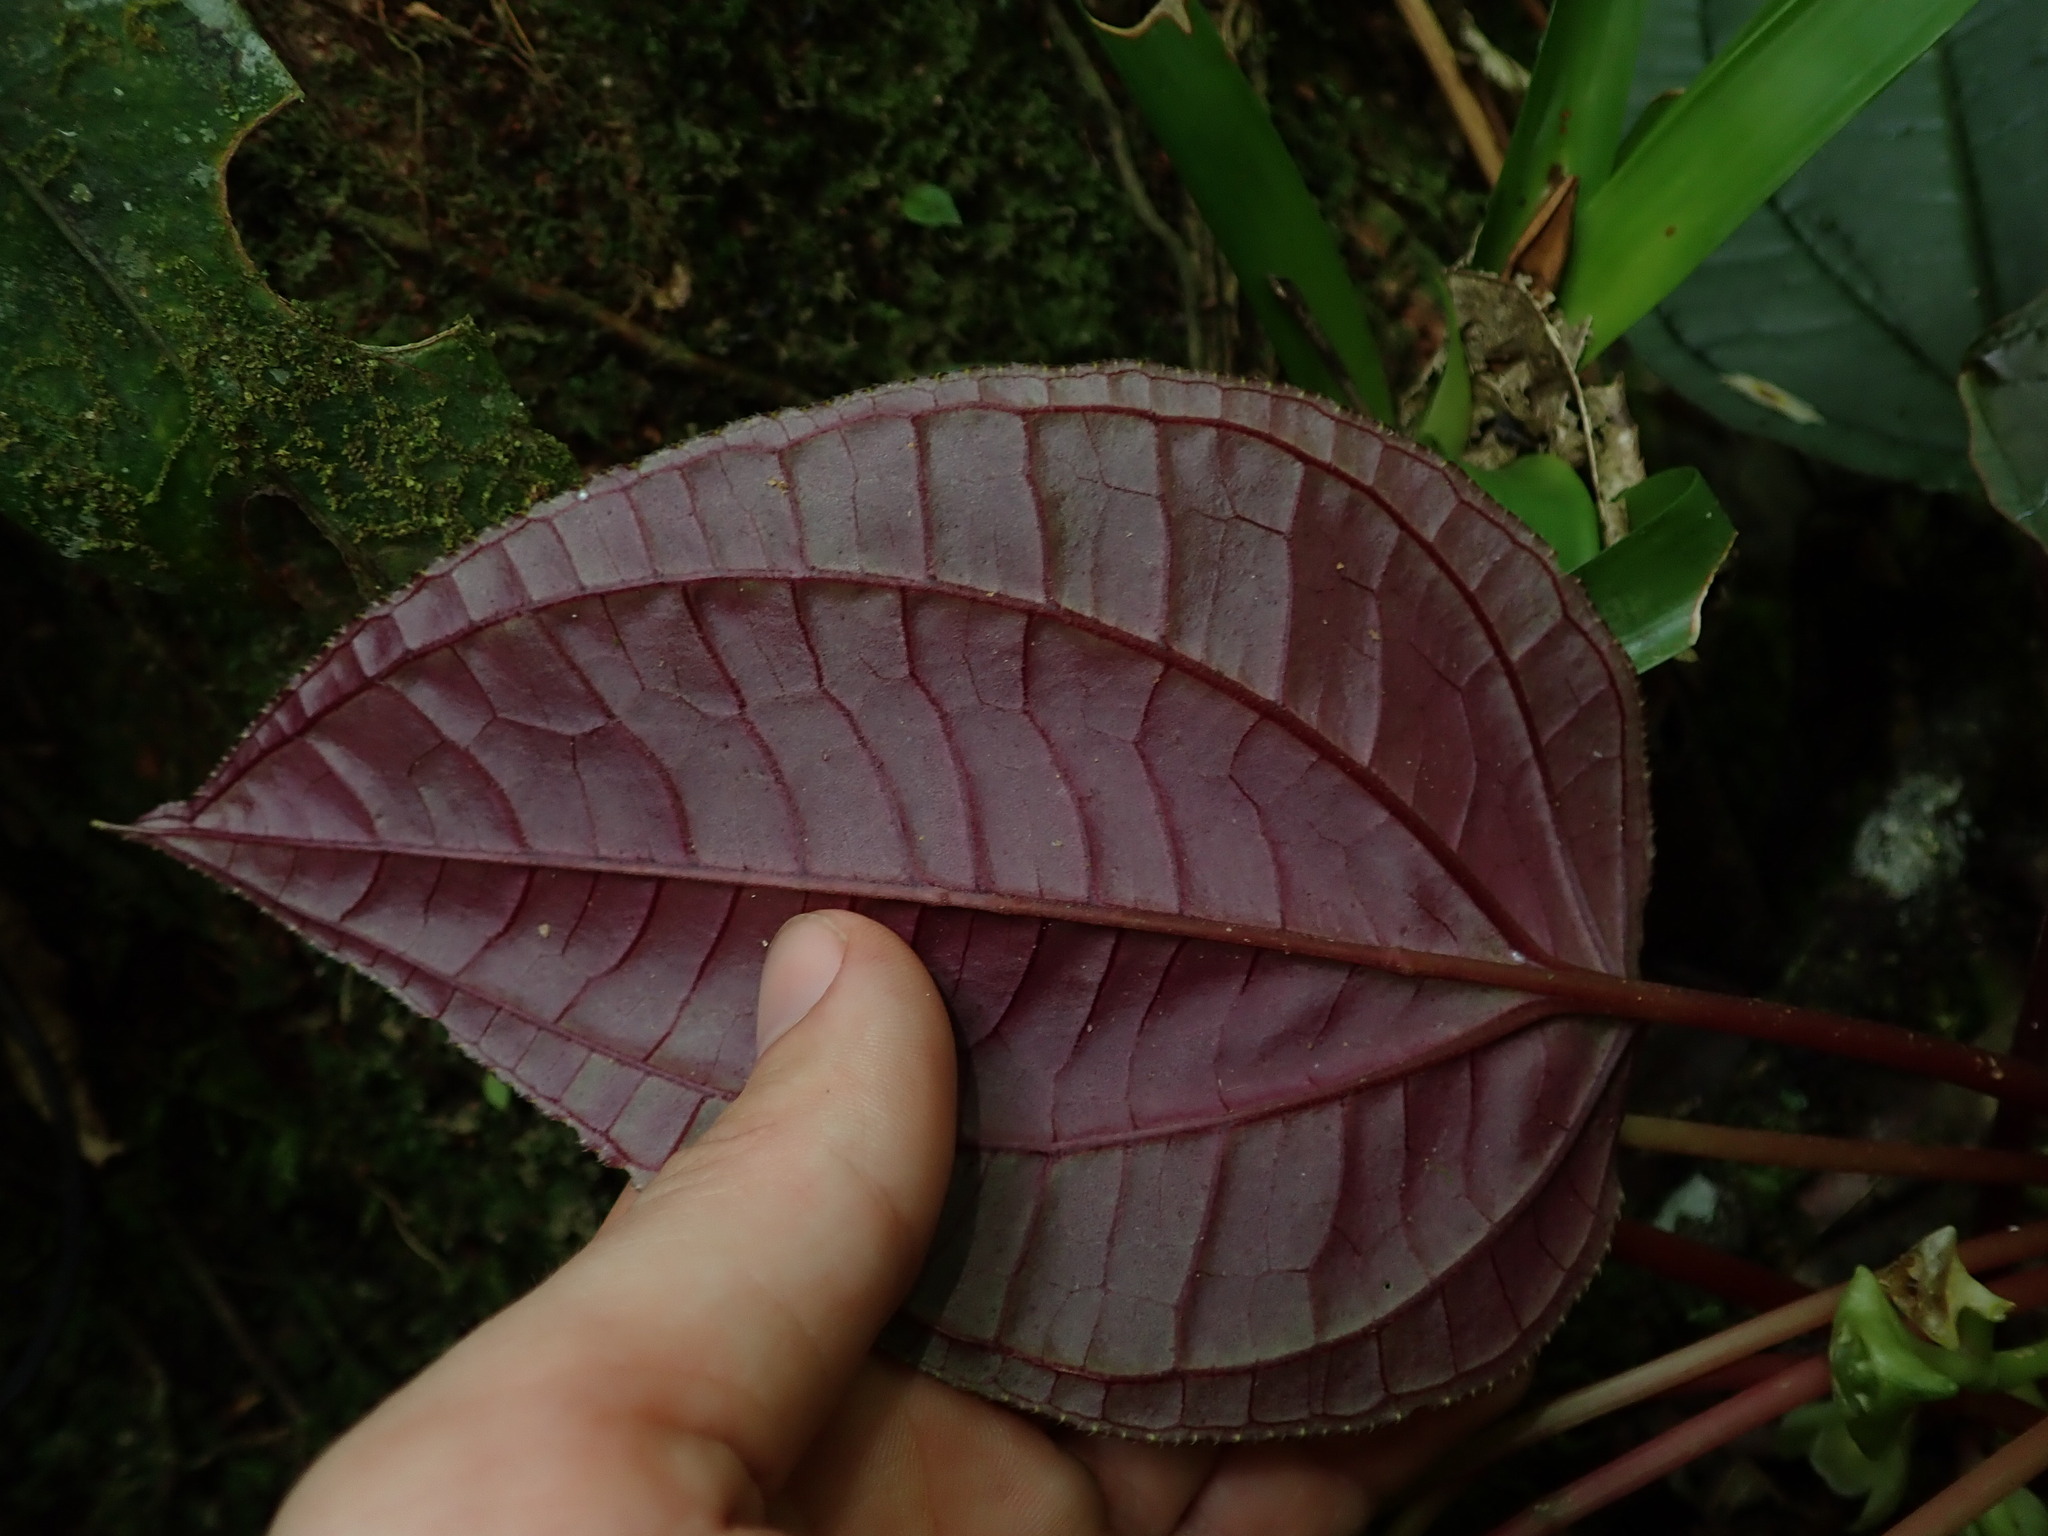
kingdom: Plantae
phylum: Tracheophyta
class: Magnoliopsida
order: Myrtales
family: Melastomataceae
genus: Monolena
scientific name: Monolena primuliflora
